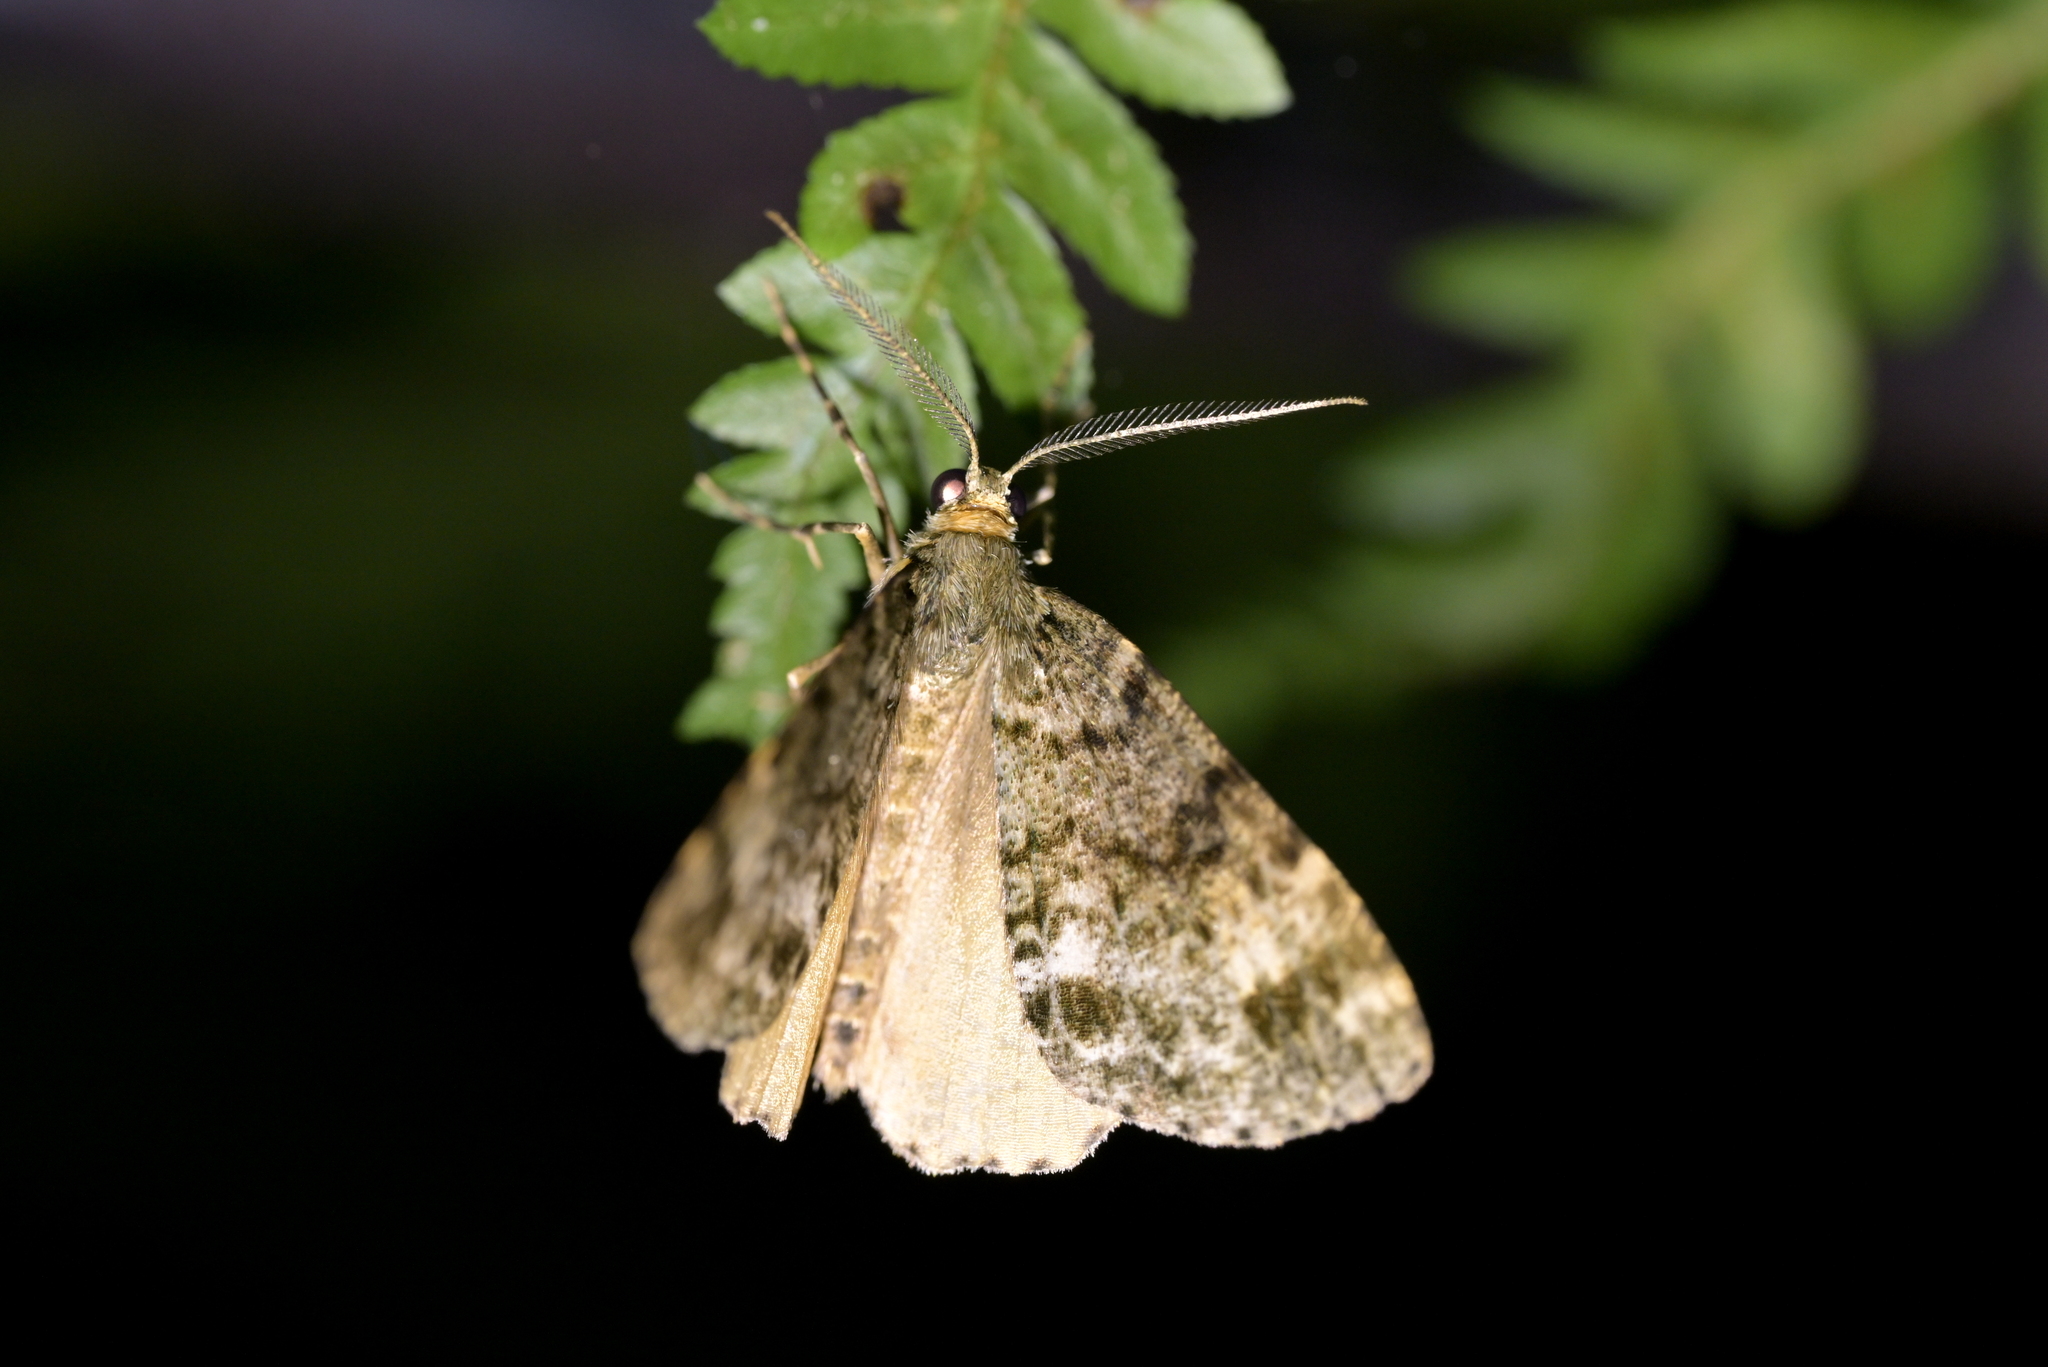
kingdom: Animalia
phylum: Arthropoda
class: Insecta
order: Lepidoptera
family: Geometridae
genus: Pseudocoremia
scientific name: Pseudocoremia indistincta
